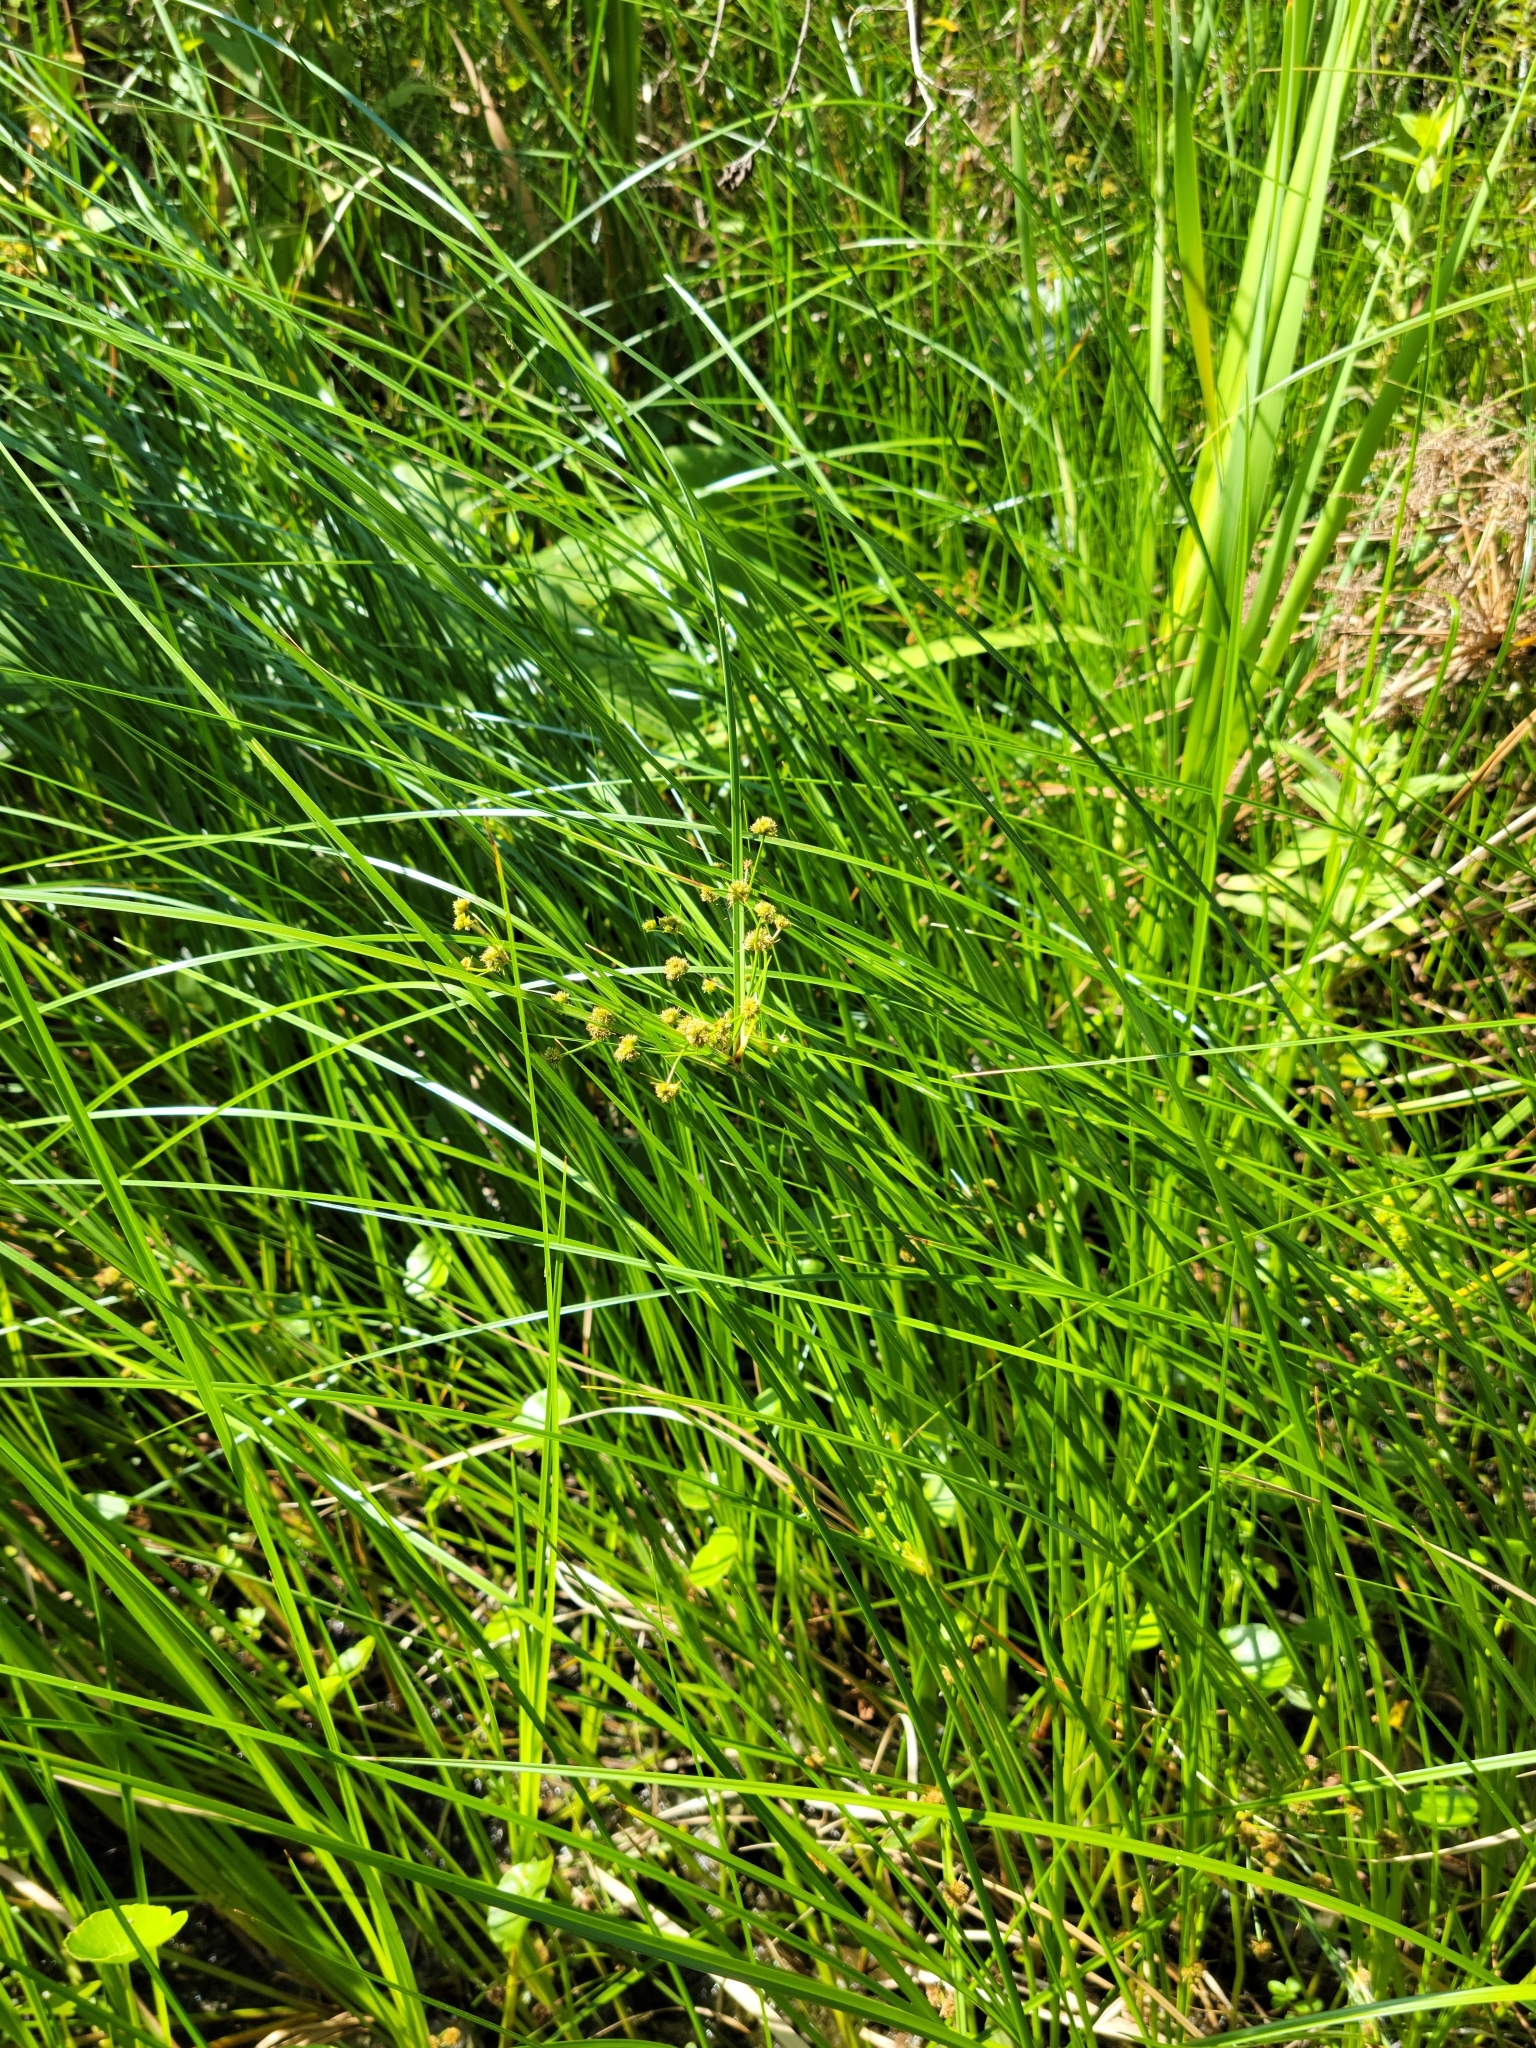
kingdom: Plantae
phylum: Tracheophyta
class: Liliopsida
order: Poales
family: Cyperaceae
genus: Cyperus
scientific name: Cyperus blepharoleptos
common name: Cuban bulrush
